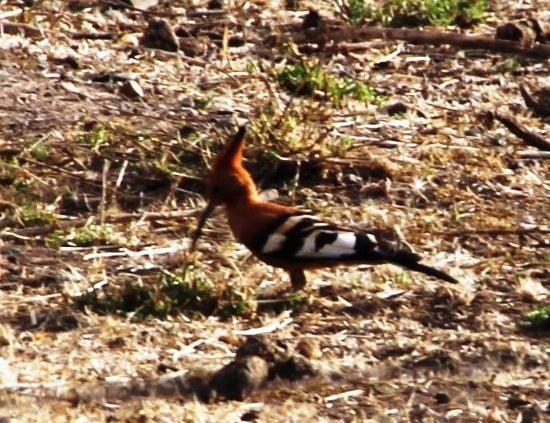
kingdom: Animalia
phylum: Chordata
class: Aves
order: Bucerotiformes
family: Upupidae
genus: Upupa
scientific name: Upupa africana
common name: African hoopoe
